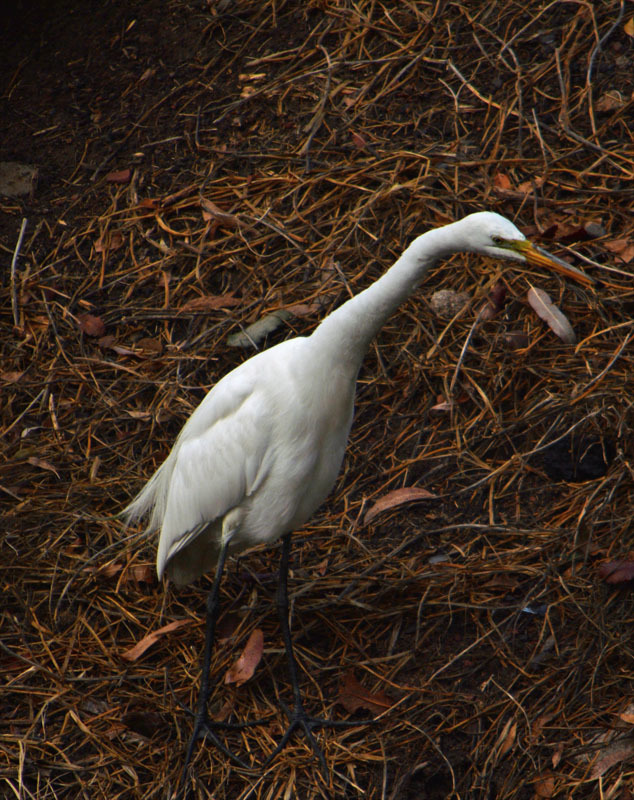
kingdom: Animalia
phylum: Chordata
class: Aves
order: Pelecaniformes
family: Ardeidae
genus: Ardea
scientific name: Ardea alba
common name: Great egret
